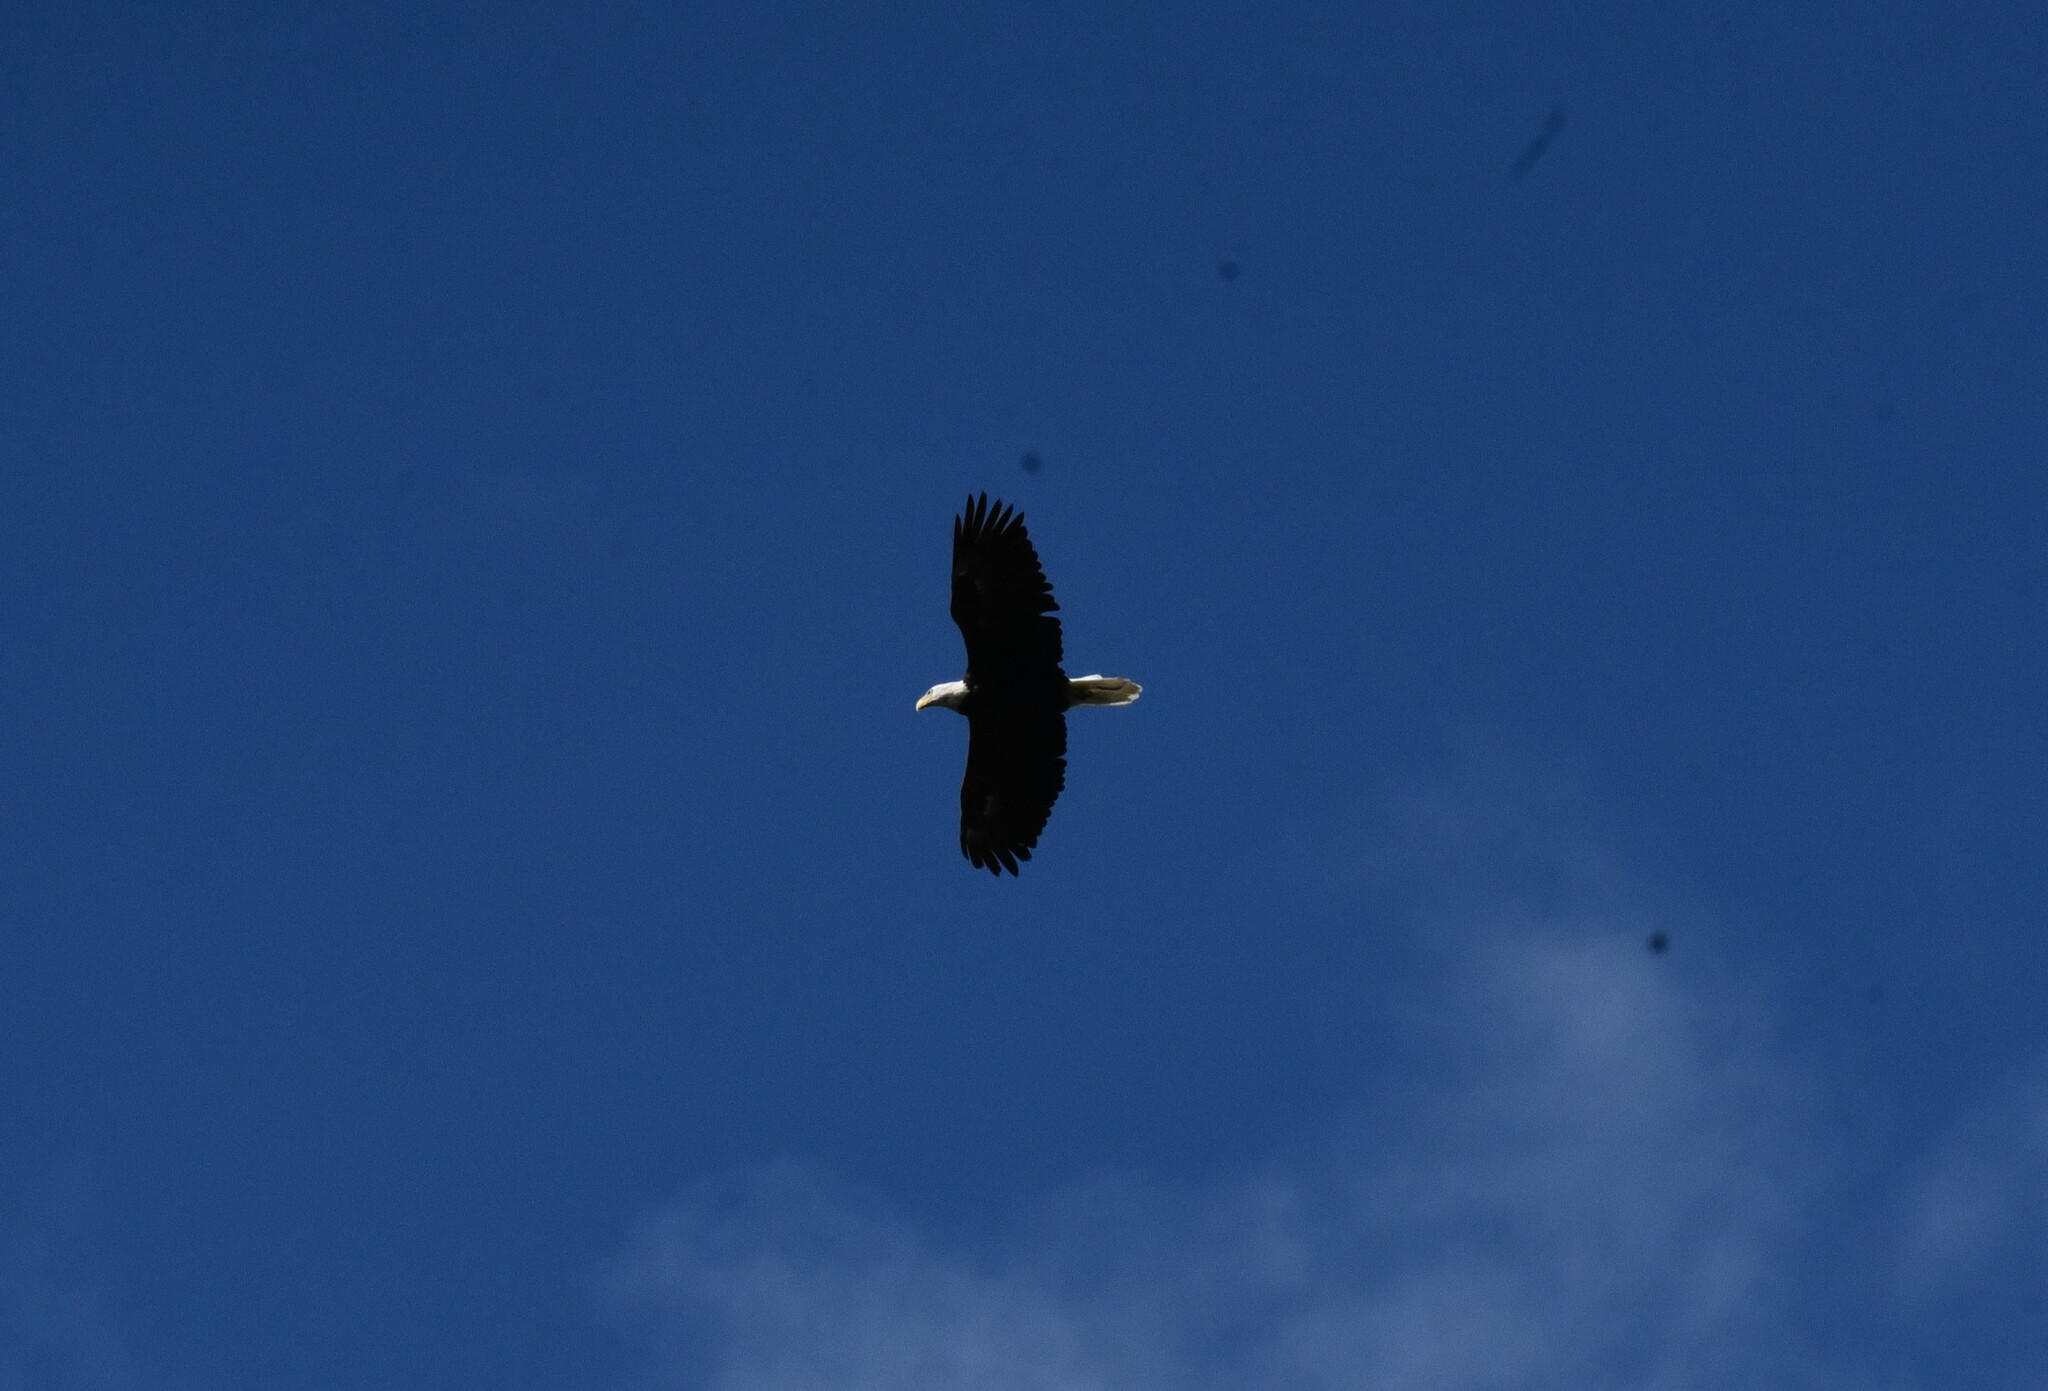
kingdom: Animalia
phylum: Chordata
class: Aves
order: Accipitriformes
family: Accipitridae
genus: Haliaeetus
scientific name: Haliaeetus leucocephalus
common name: Bald eagle
